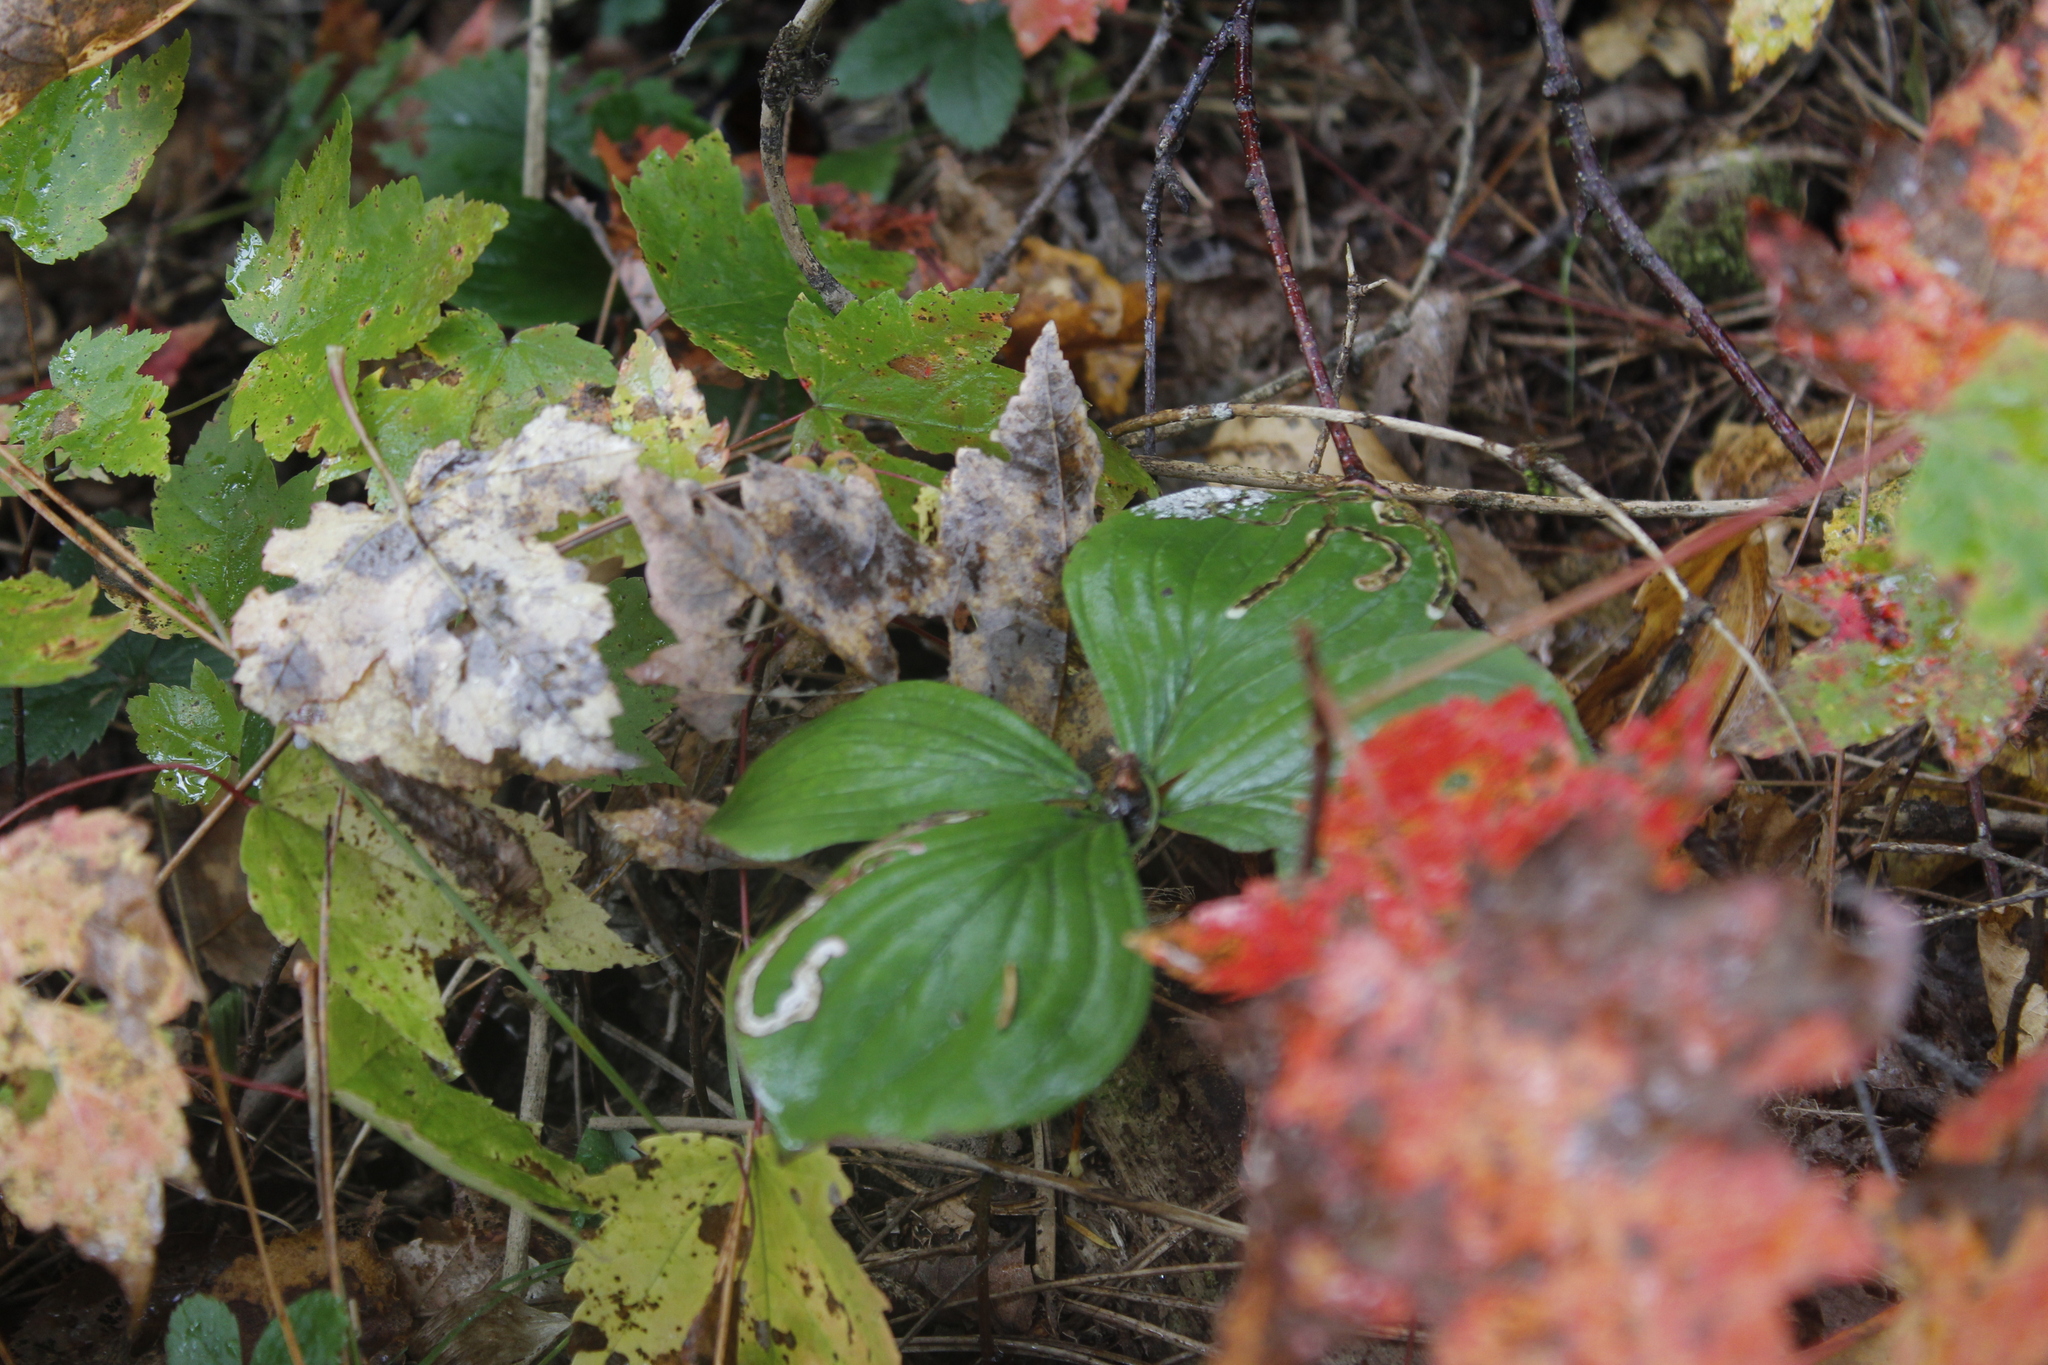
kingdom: Plantae
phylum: Tracheophyta
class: Magnoliopsida
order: Cornales
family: Cornaceae
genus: Cornus
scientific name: Cornus canadensis
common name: Creeping dogwood
